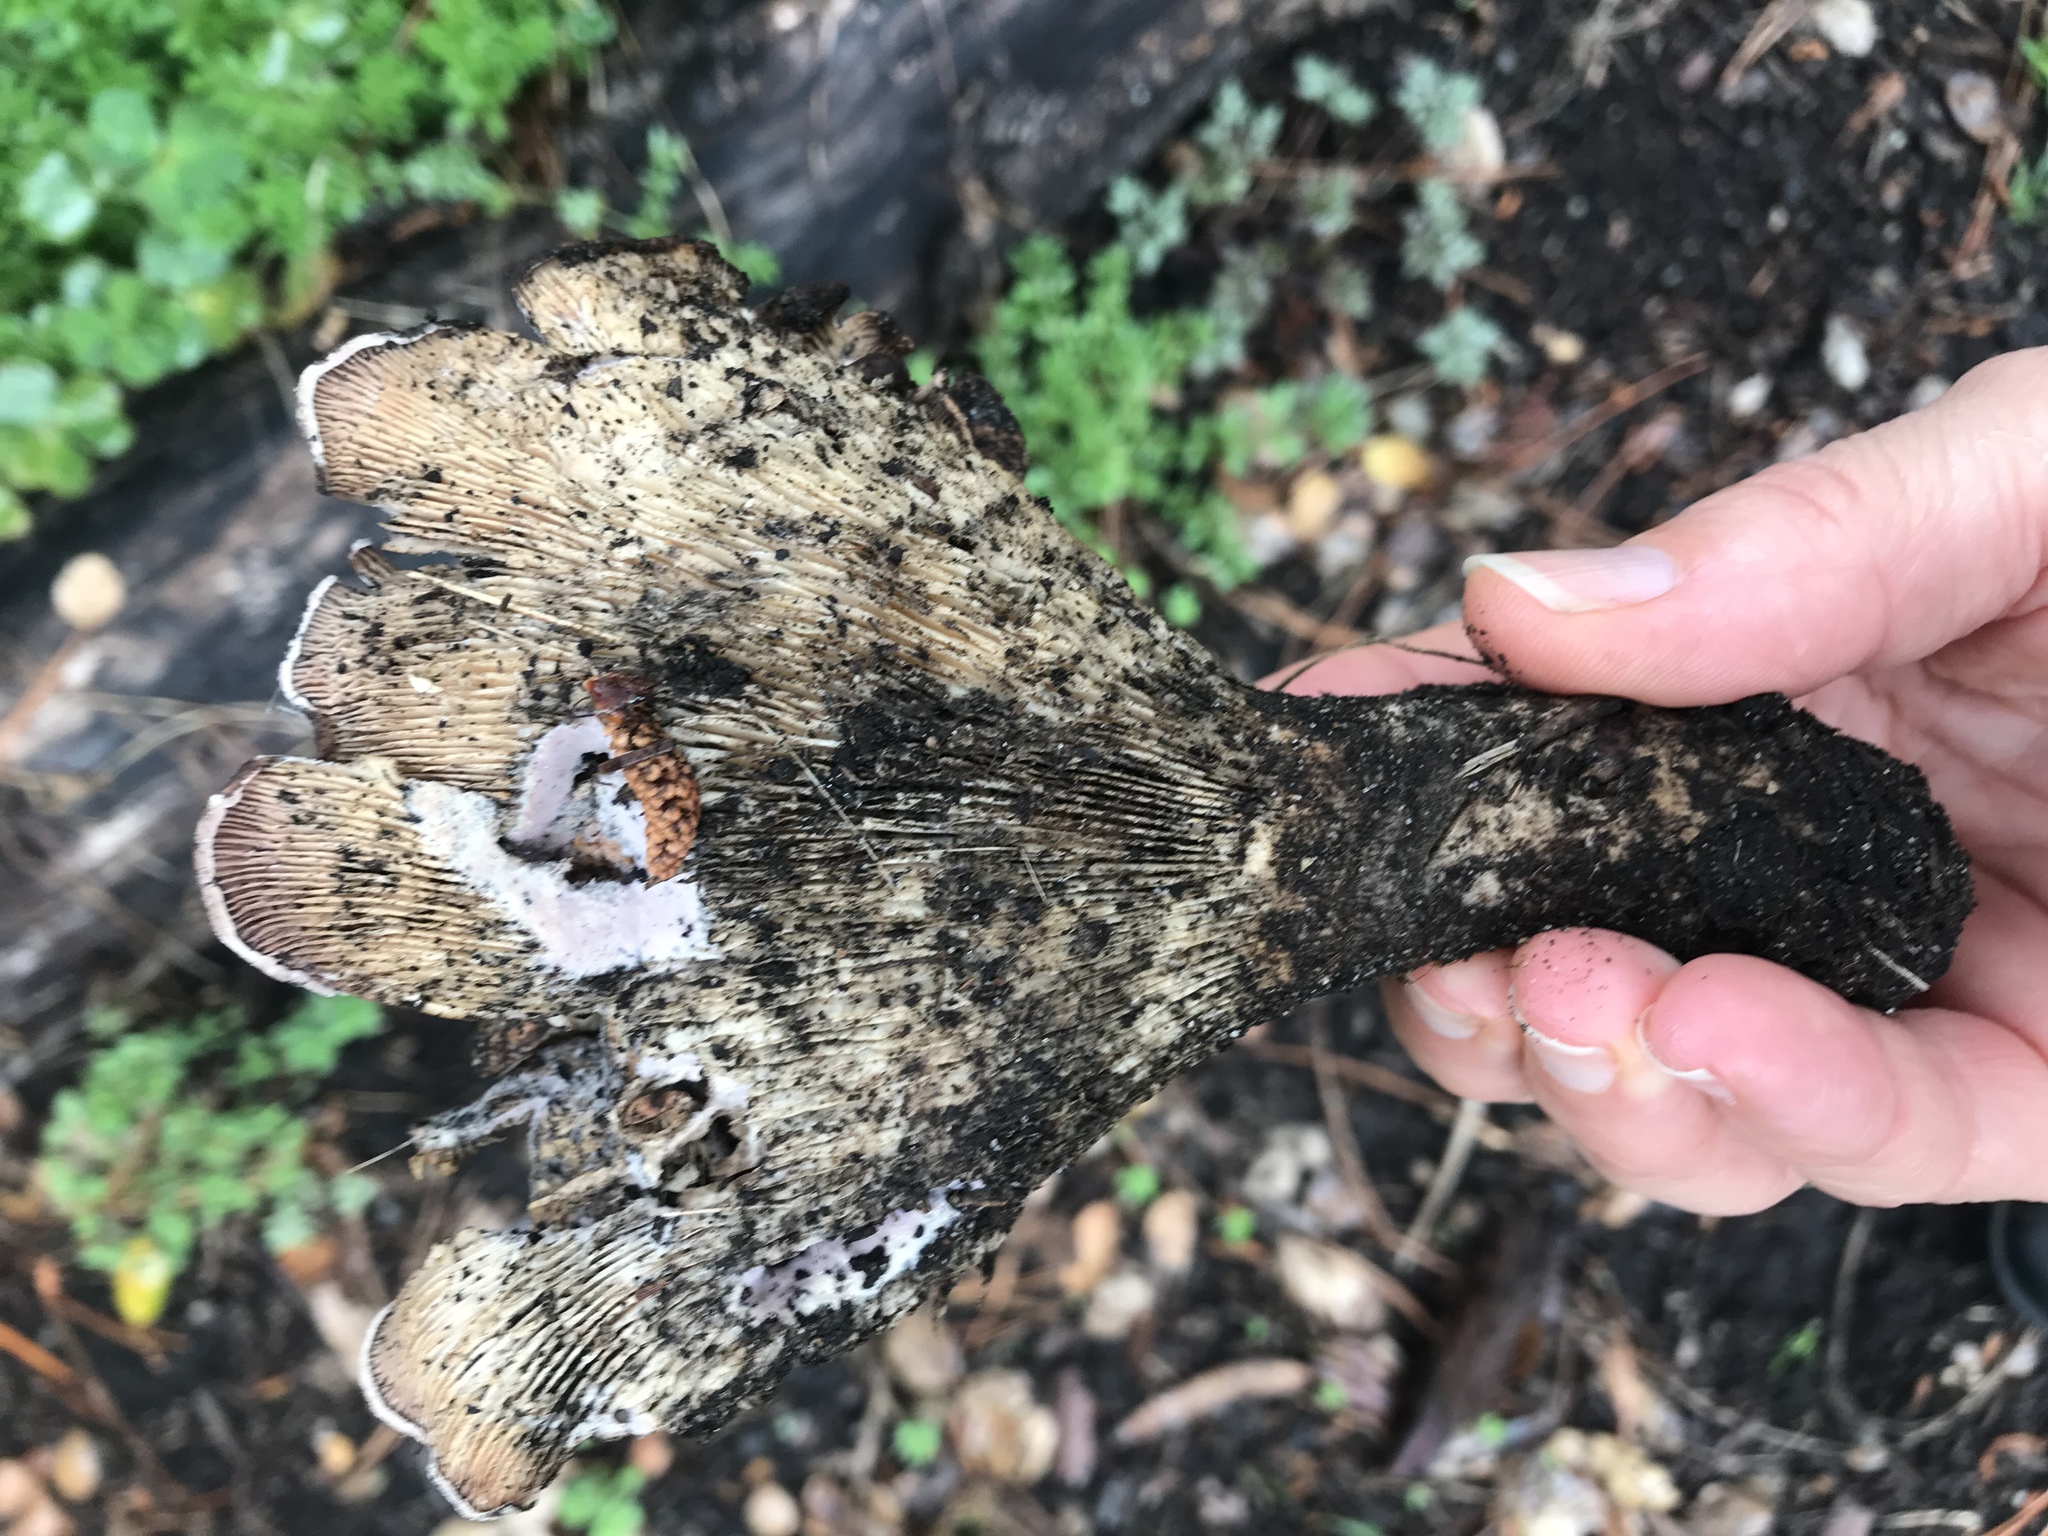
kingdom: Fungi
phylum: Basidiomycota
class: Agaricomycetes
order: Polyporales
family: Panaceae
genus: Panus
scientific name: Panus conchatus
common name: Lilac oysterling
